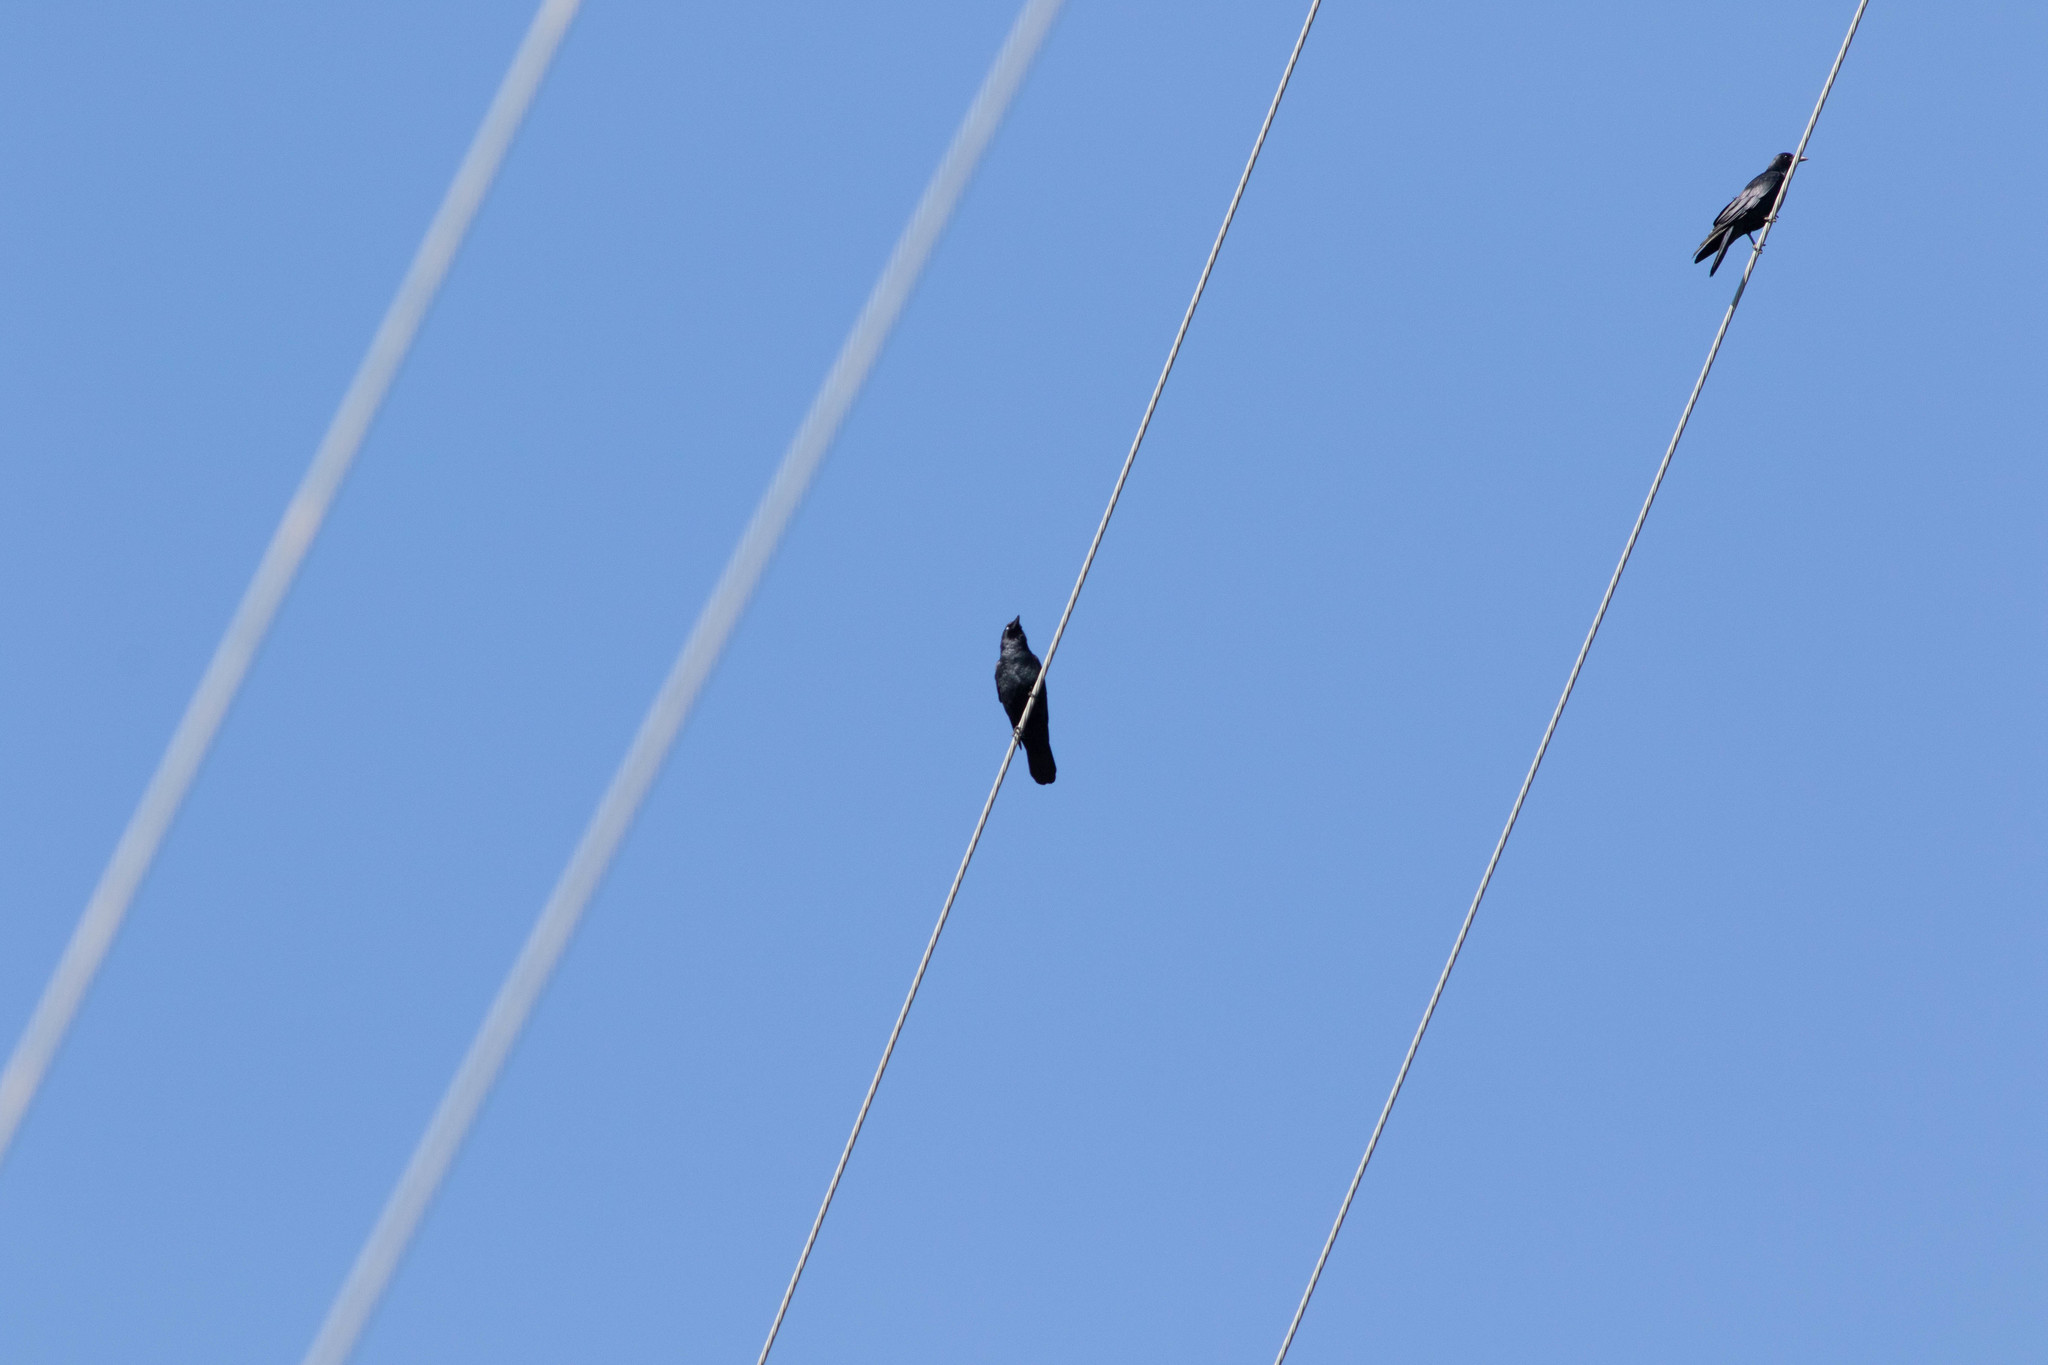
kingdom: Animalia
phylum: Chordata
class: Aves
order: Passeriformes
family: Corvidae
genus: Corvus
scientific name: Corvus ossifragus
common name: Fish crow
